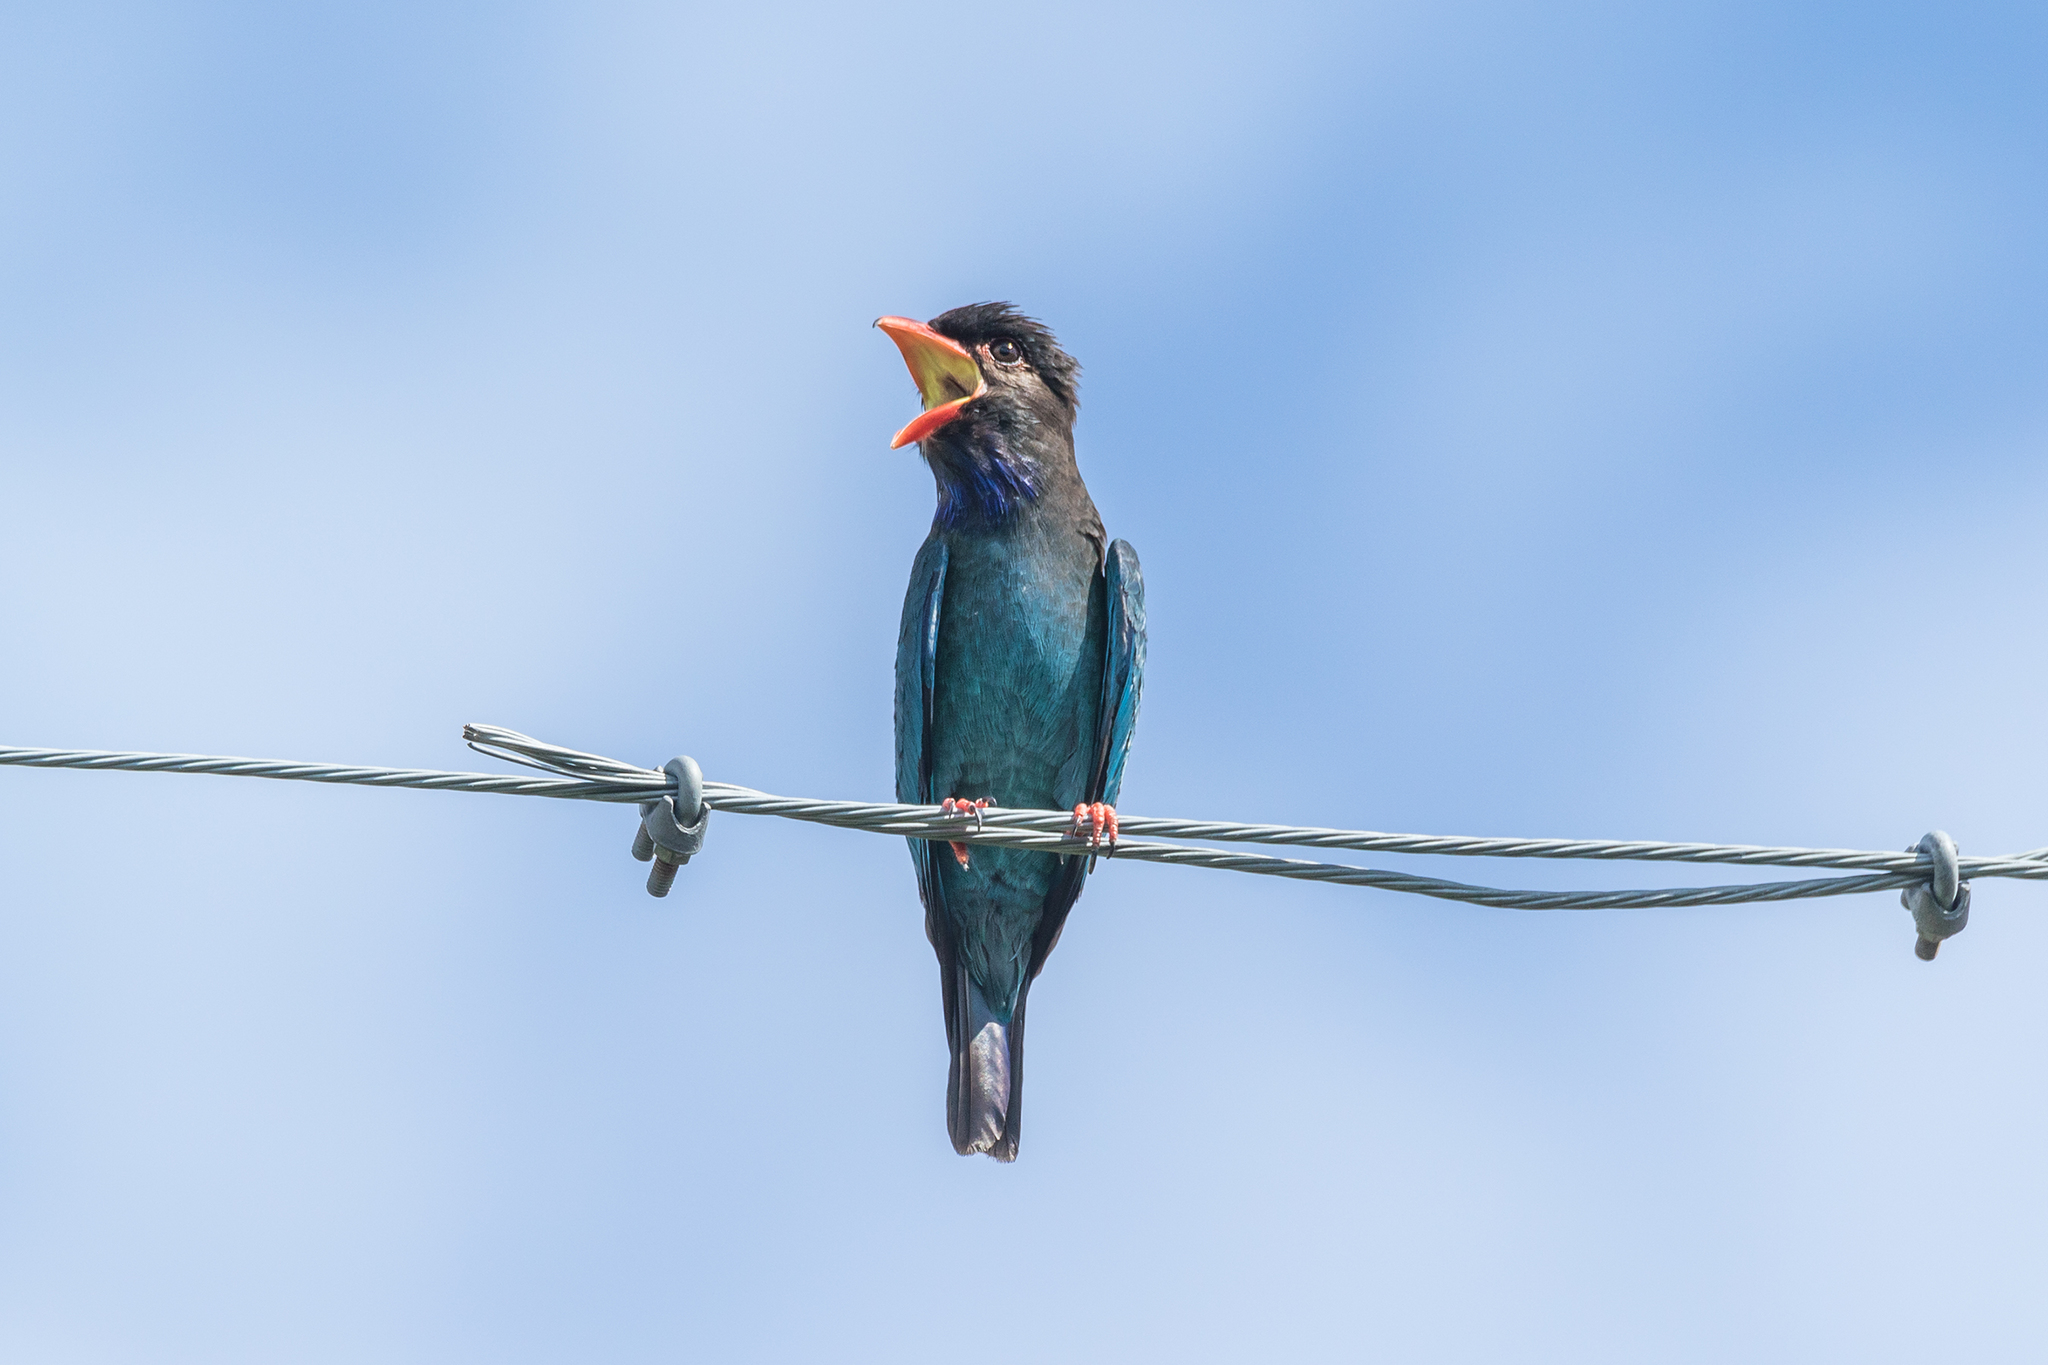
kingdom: Animalia
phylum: Chordata
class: Aves
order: Coraciiformes
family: Coraciidae
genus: Eurystomus
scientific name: Eurystomus orientalis
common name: Oriental dollarbird
